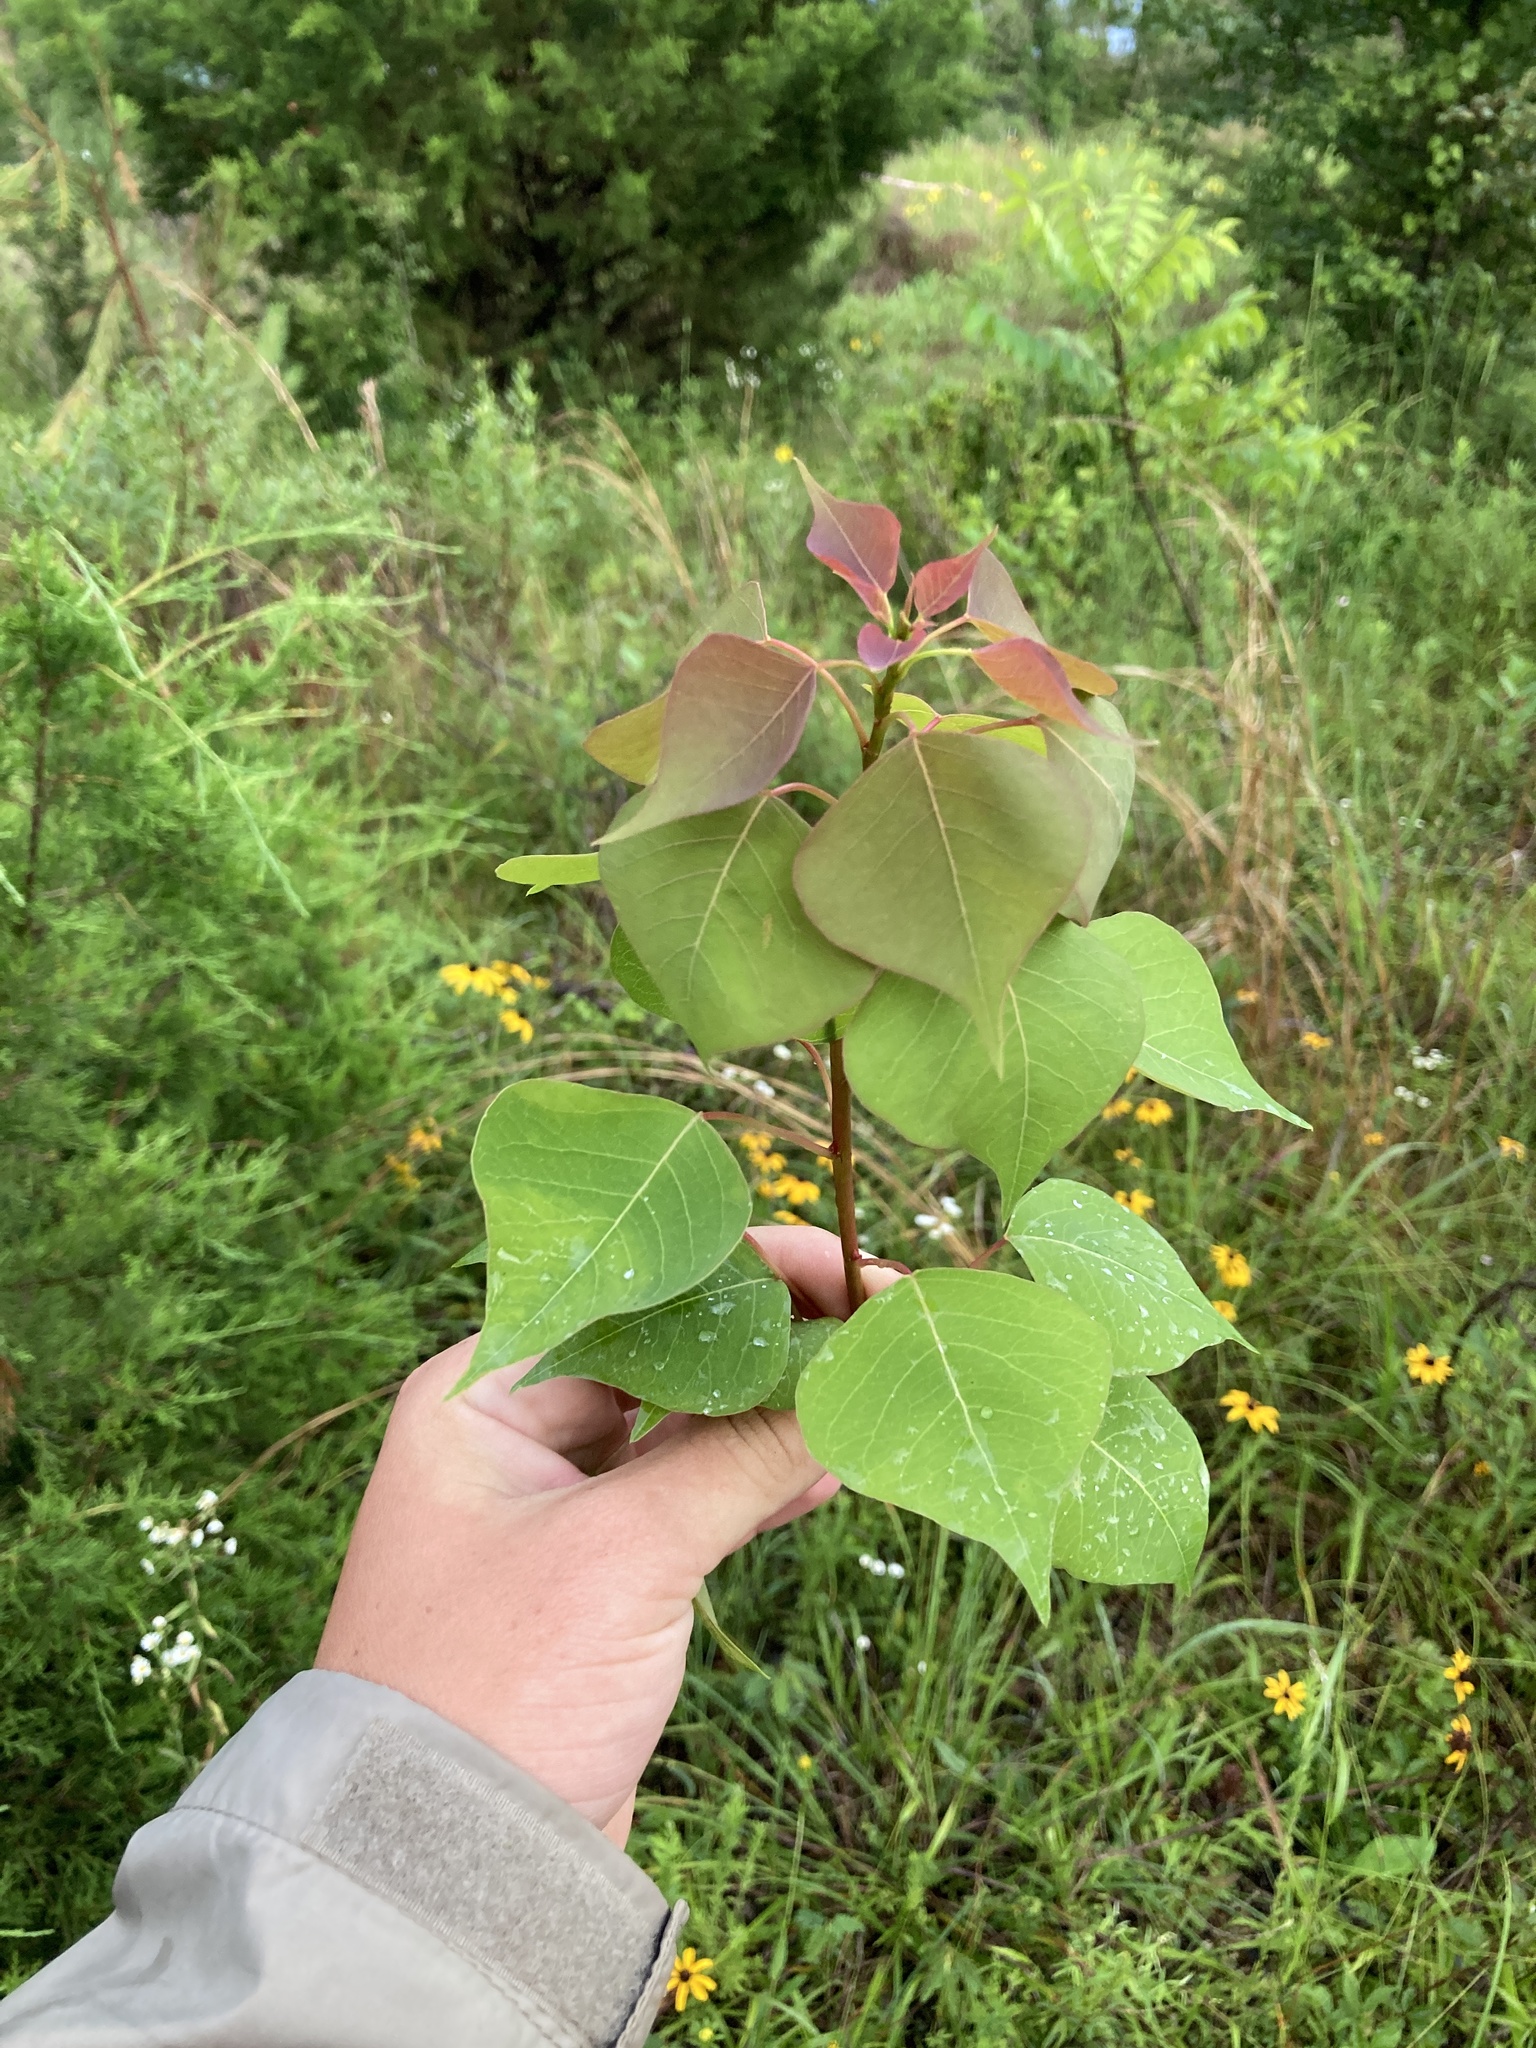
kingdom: Plantae
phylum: Tracheophyta
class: Magnoliopsida
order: Malpighiales
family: Euphorbiaceae
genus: Triadica
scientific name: Triadica sebifera
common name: Chinese tallow
